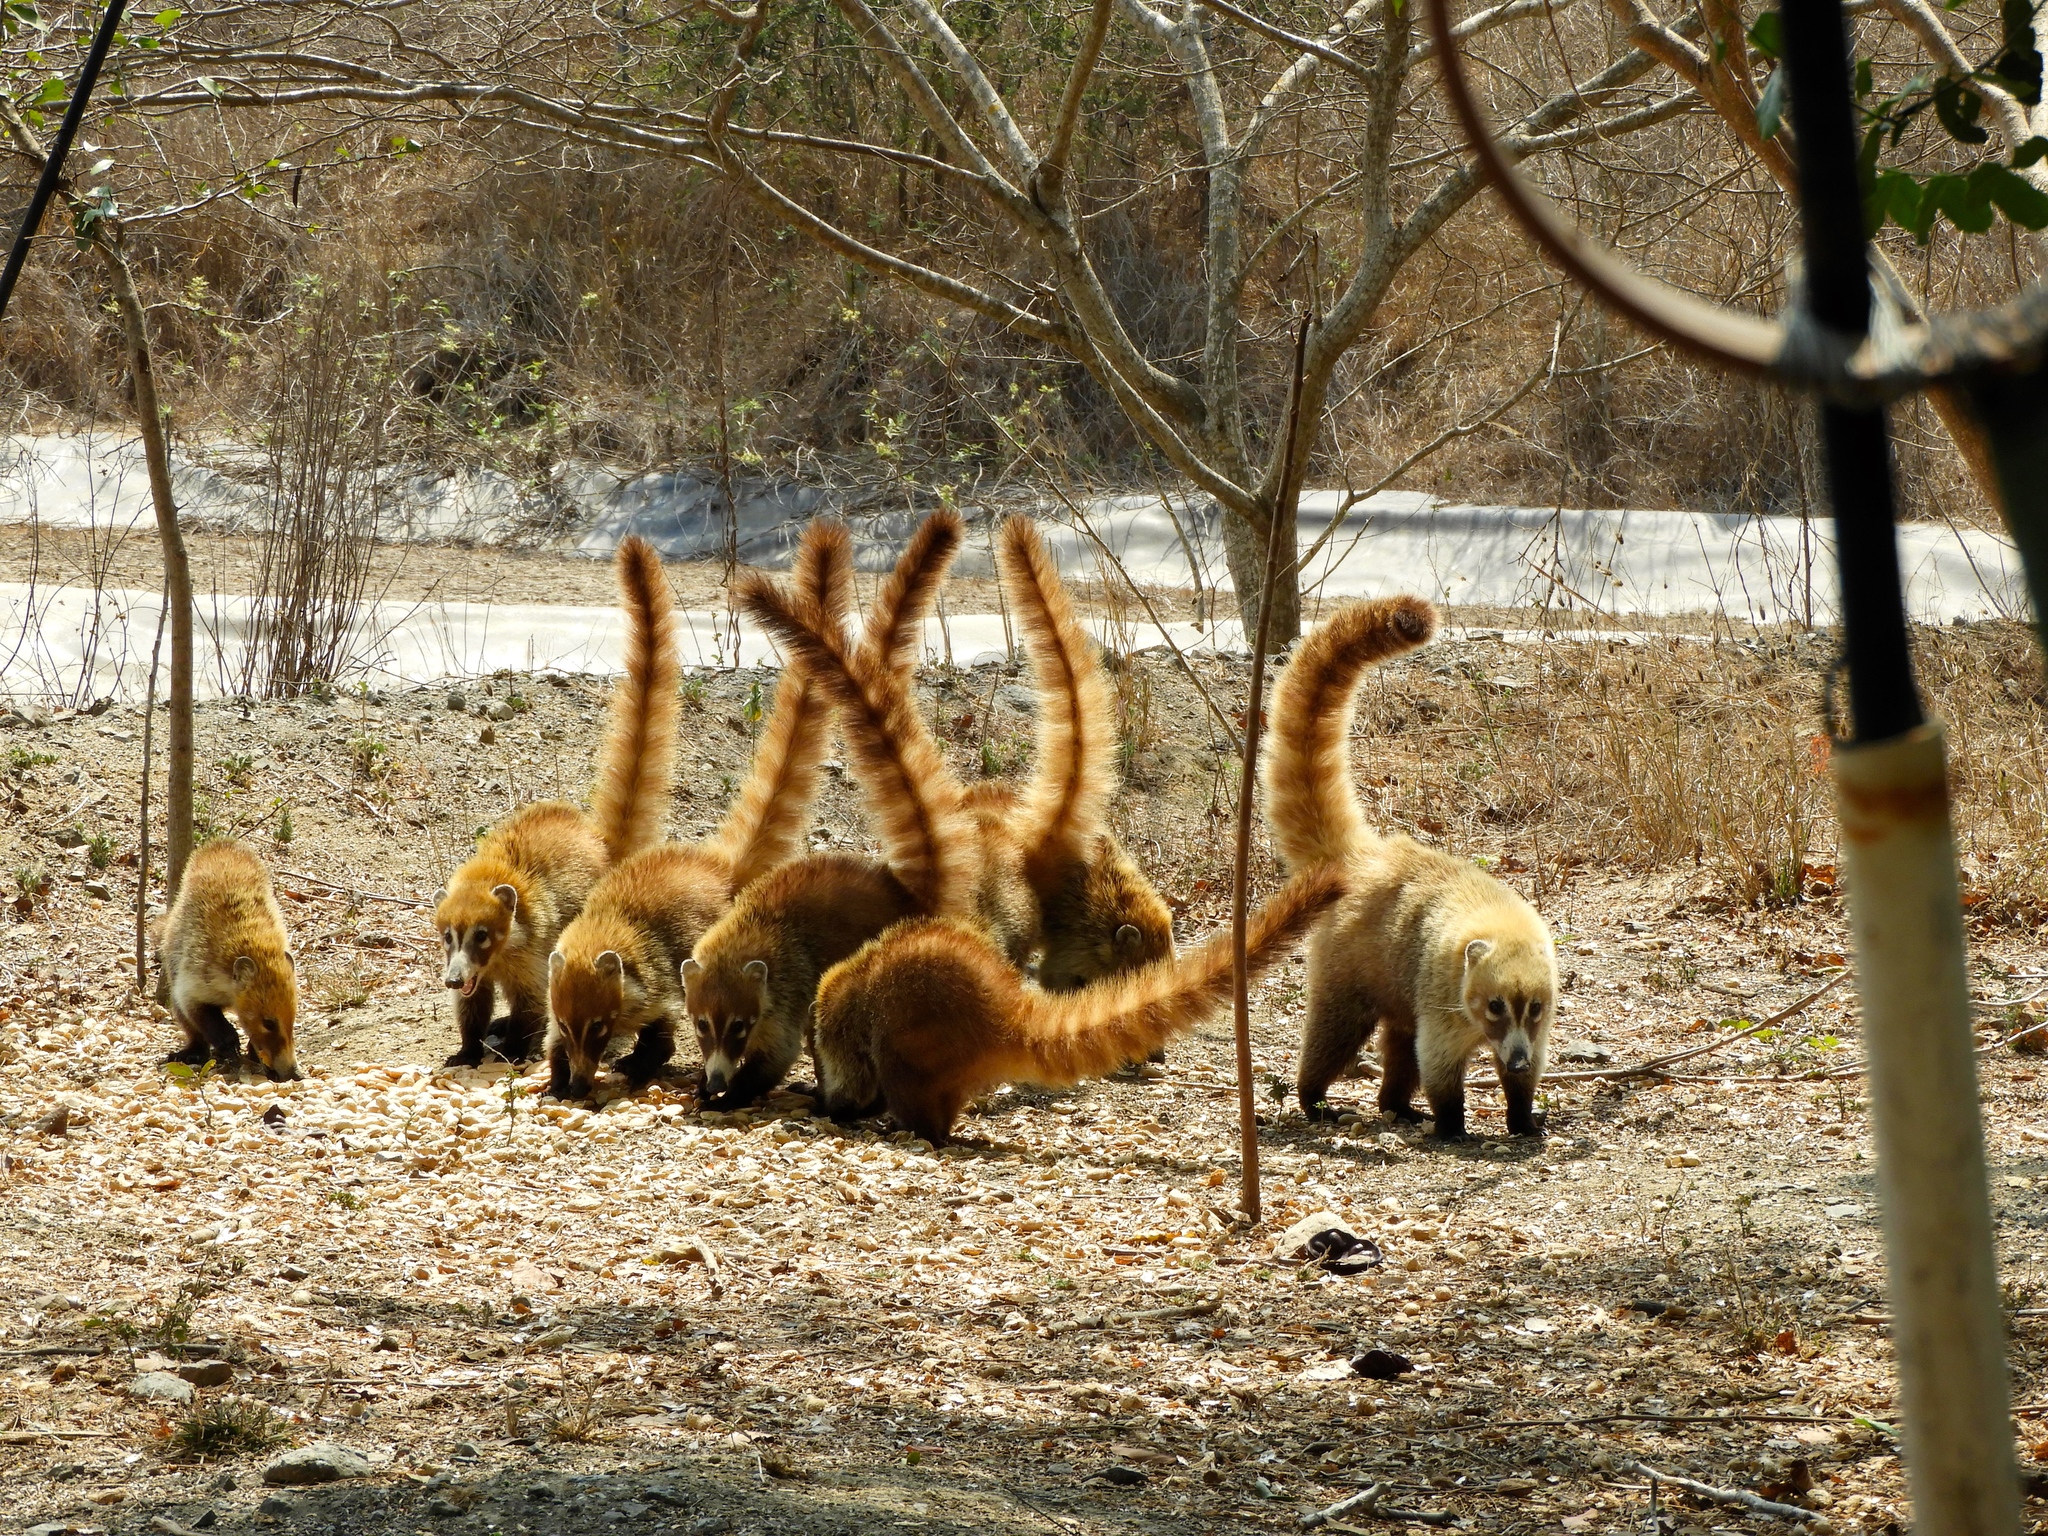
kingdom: Animalia
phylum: Chordata
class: Mammalia
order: Carnivora
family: Procyonidae
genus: Nasua
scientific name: Nasua narica
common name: White-nosed coati
